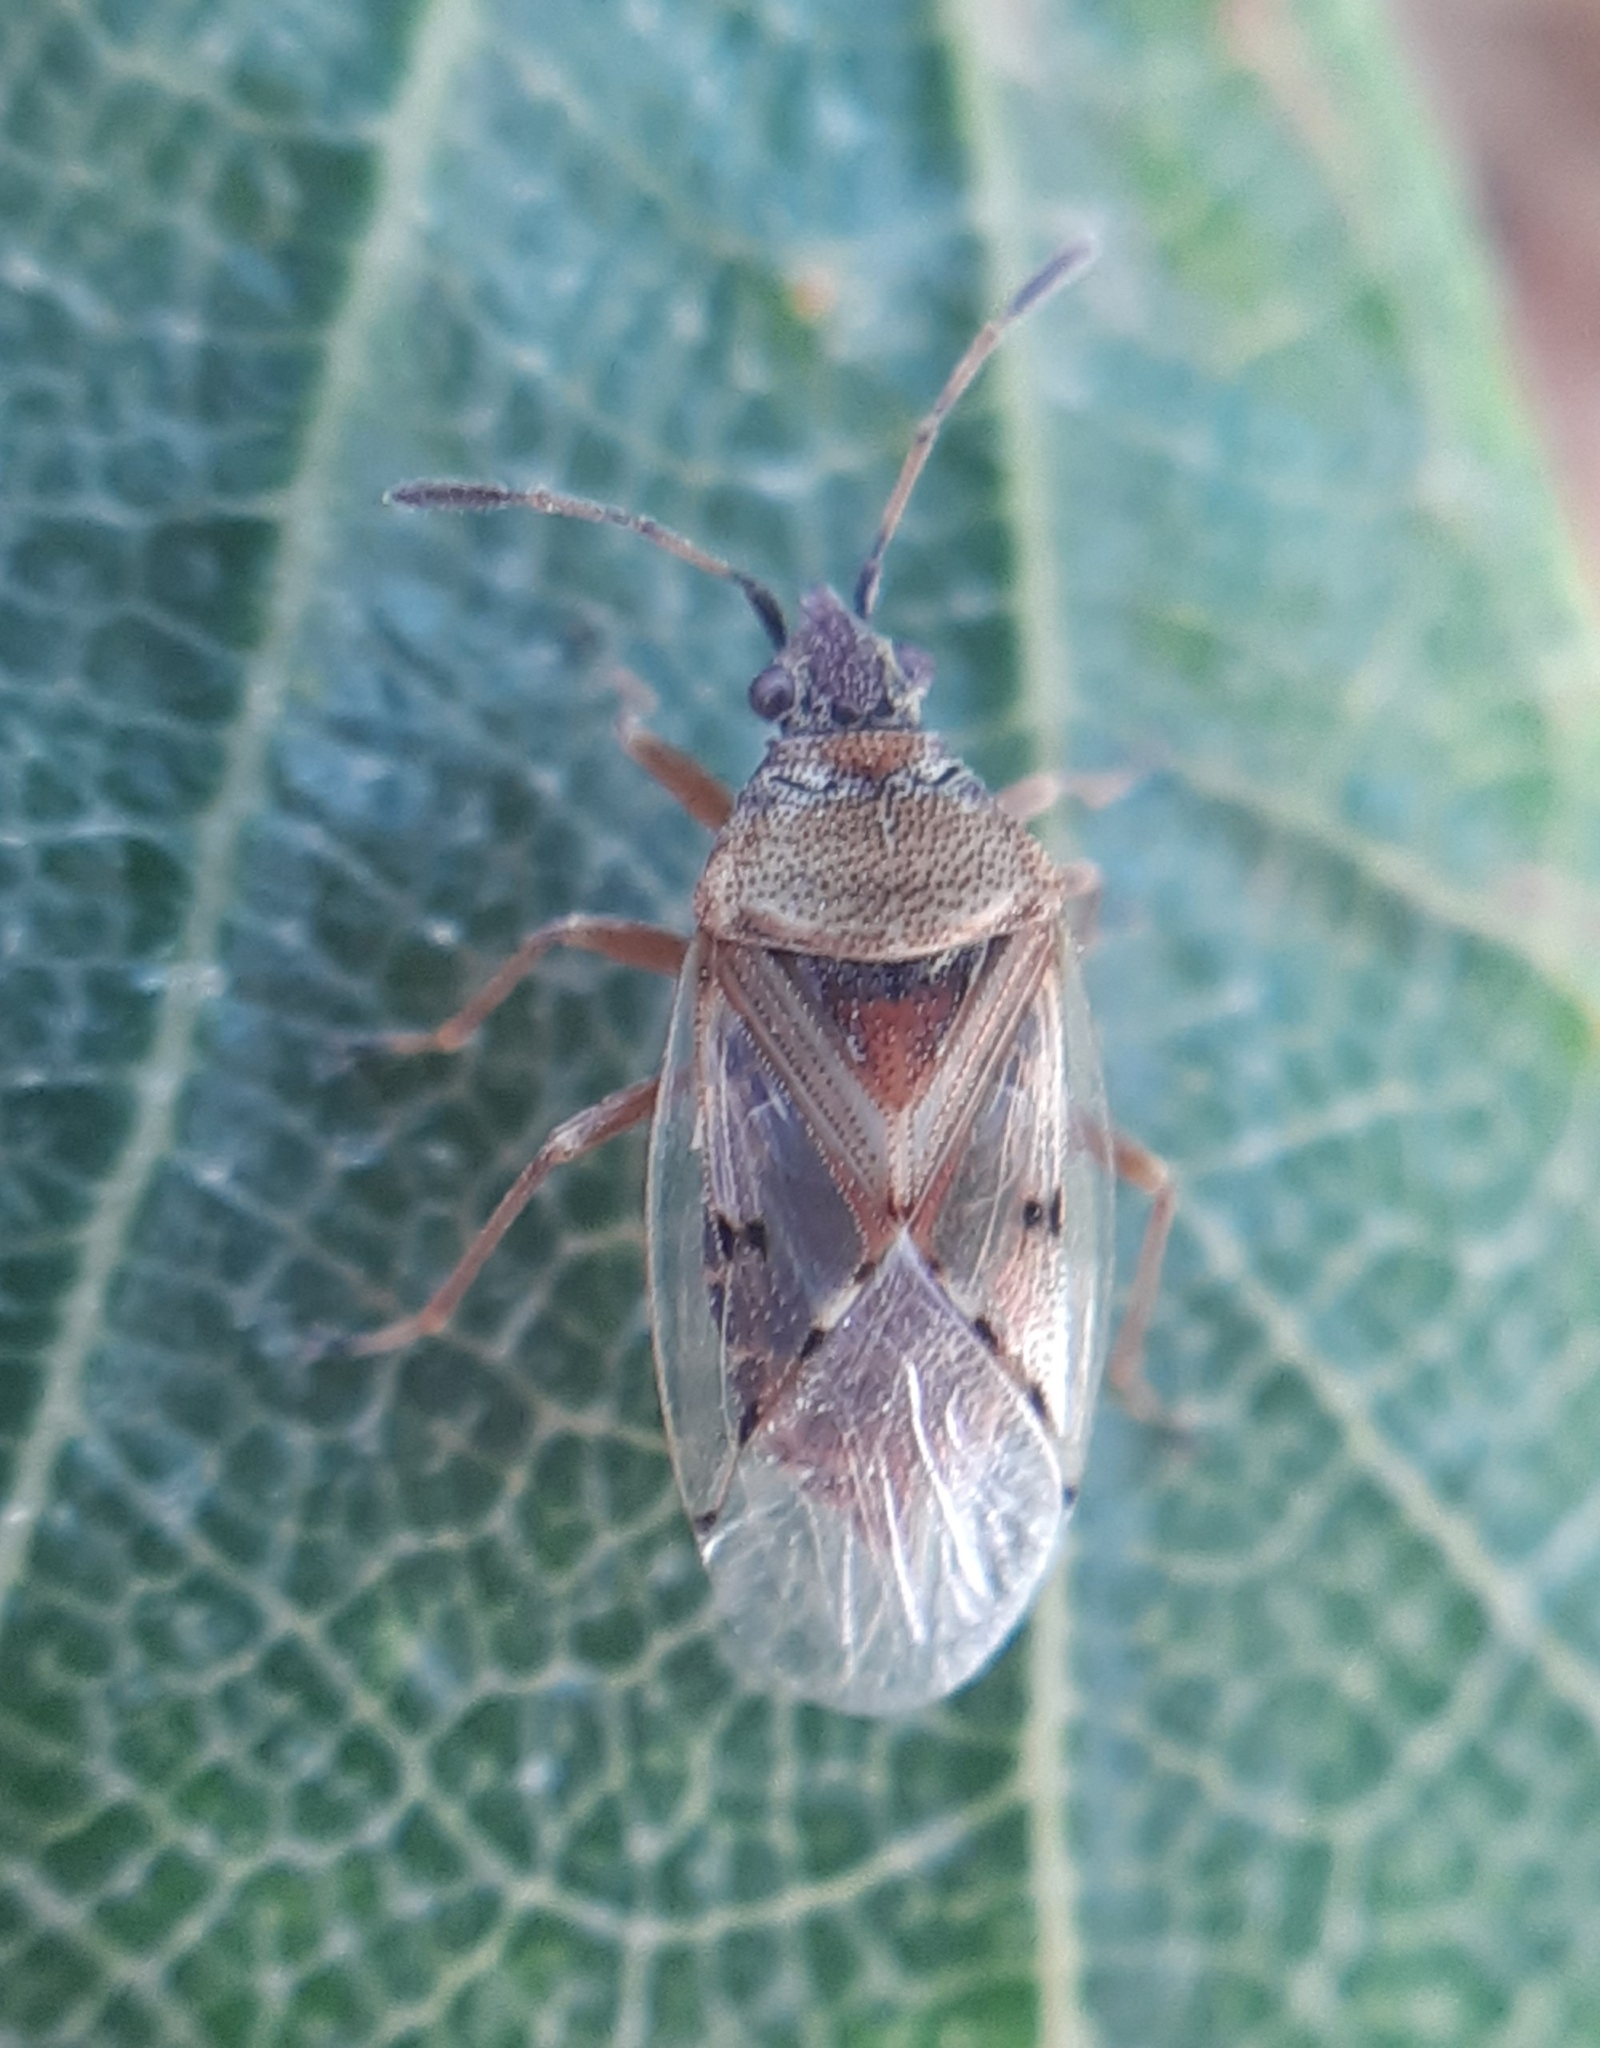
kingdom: Animalia
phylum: Arthropoda
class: Insecta
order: Hemiptera
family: Lygaeidae
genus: Kleidocerys
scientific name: Kleidocerys resedae
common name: Birch catkin bug
